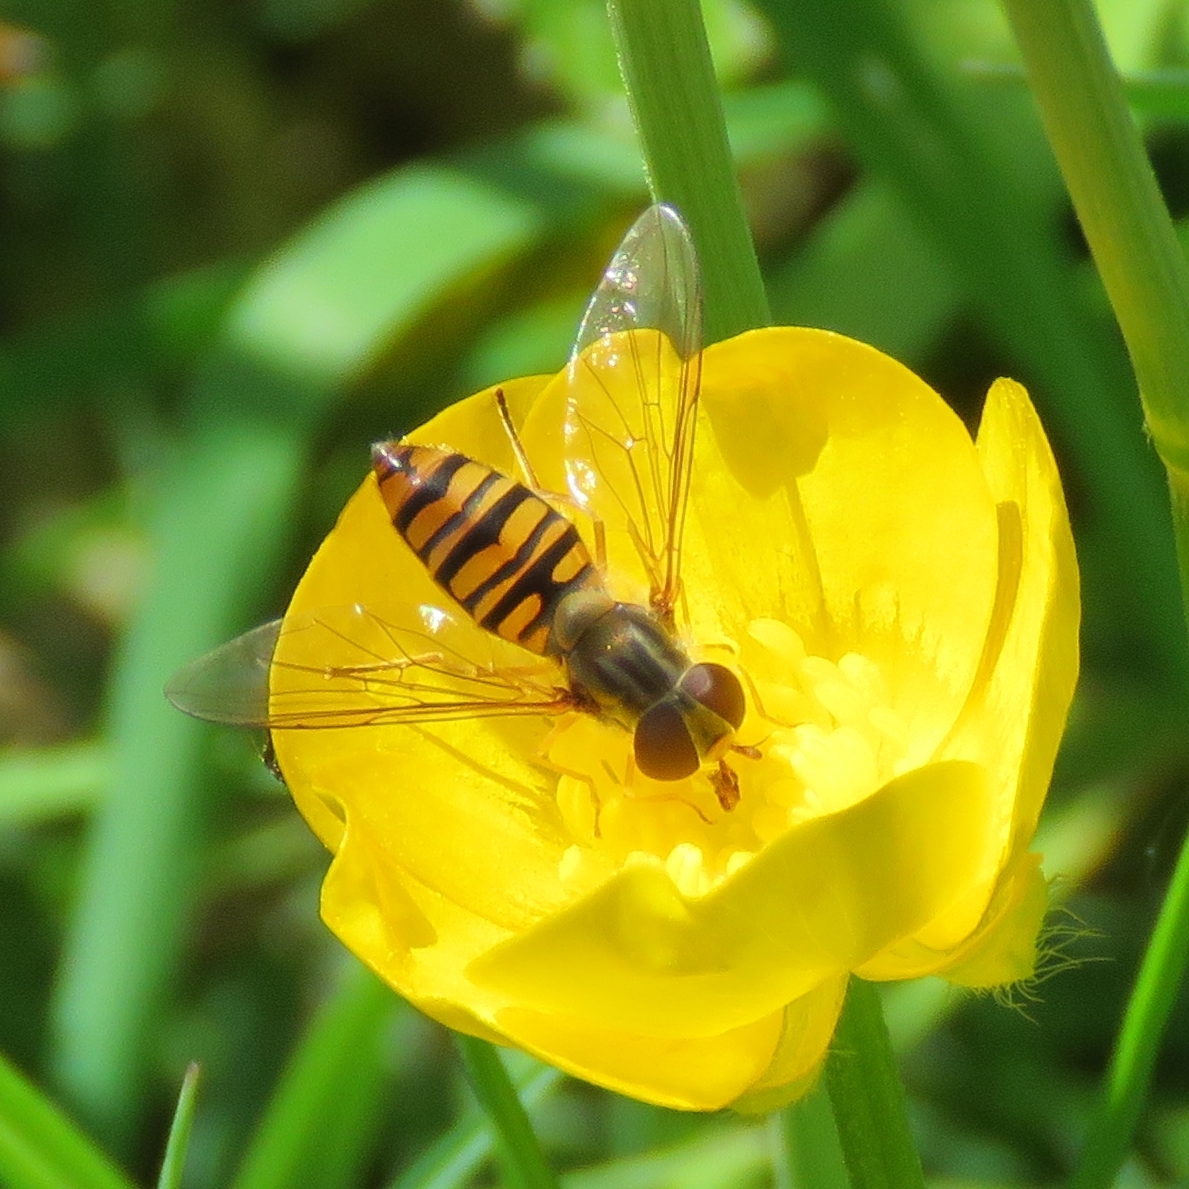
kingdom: Animalia
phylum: Arthropoda
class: Insecta
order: Diptera
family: Syrphidae
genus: Episyrphus
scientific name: Episyrphus balteatus
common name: Marmalade hoverfly
